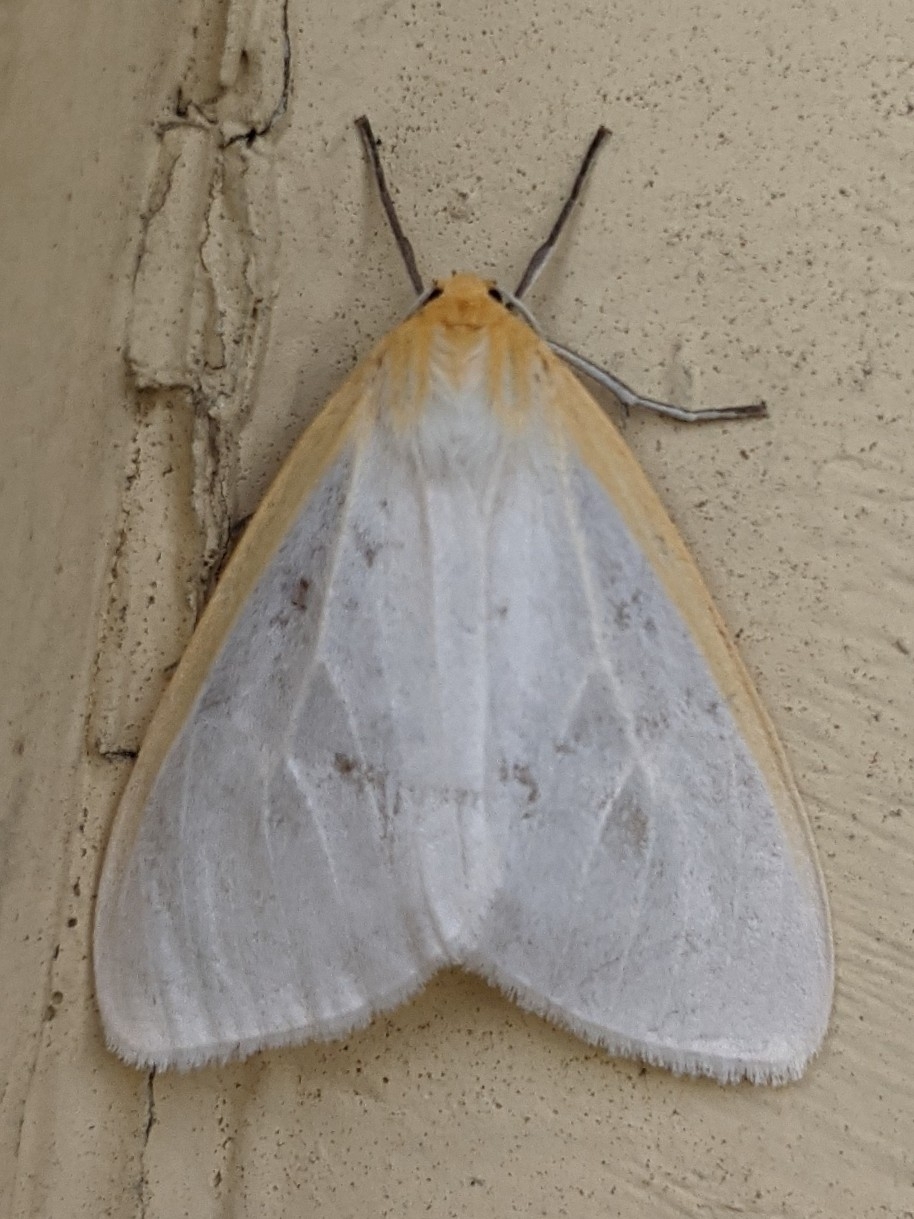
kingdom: Animalia
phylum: Arthropoda
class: Insecta
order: Lepidoptera
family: Erebidae
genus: Cycnia
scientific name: Cycnia tenera
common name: Delicate cycnia moth
